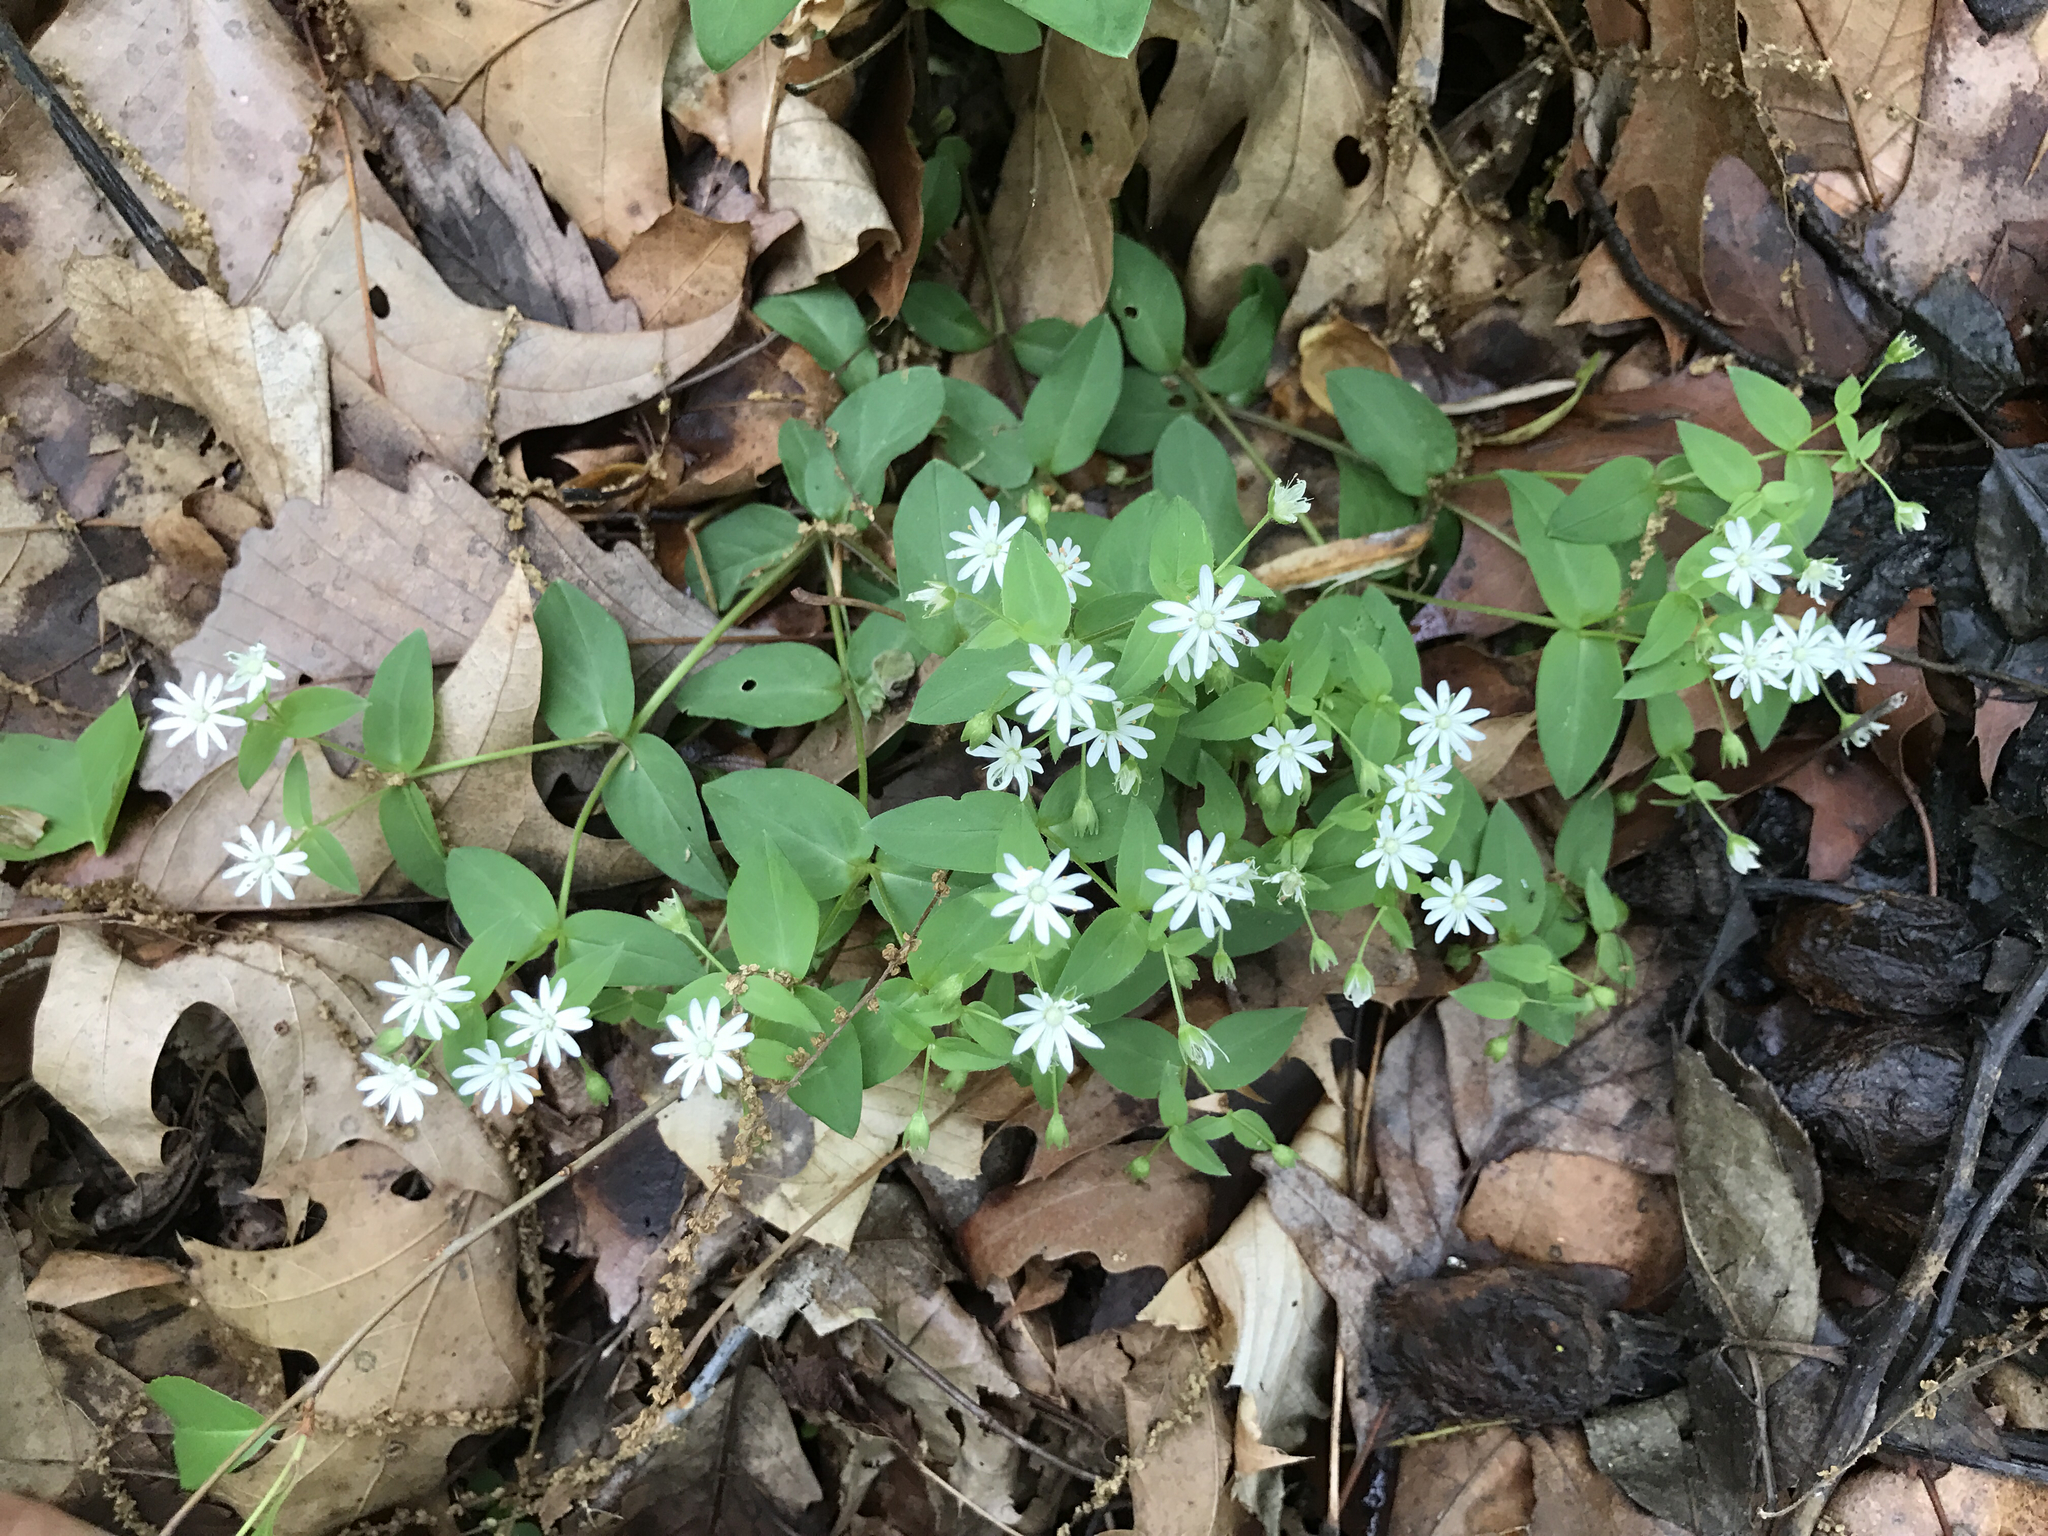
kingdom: Plantae
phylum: Tracheophyta
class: Magnoliopsida
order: Caryophyllales
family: Caryophyllaceae
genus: Stellaria
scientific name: Stellaria pubera
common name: Star chickweed
